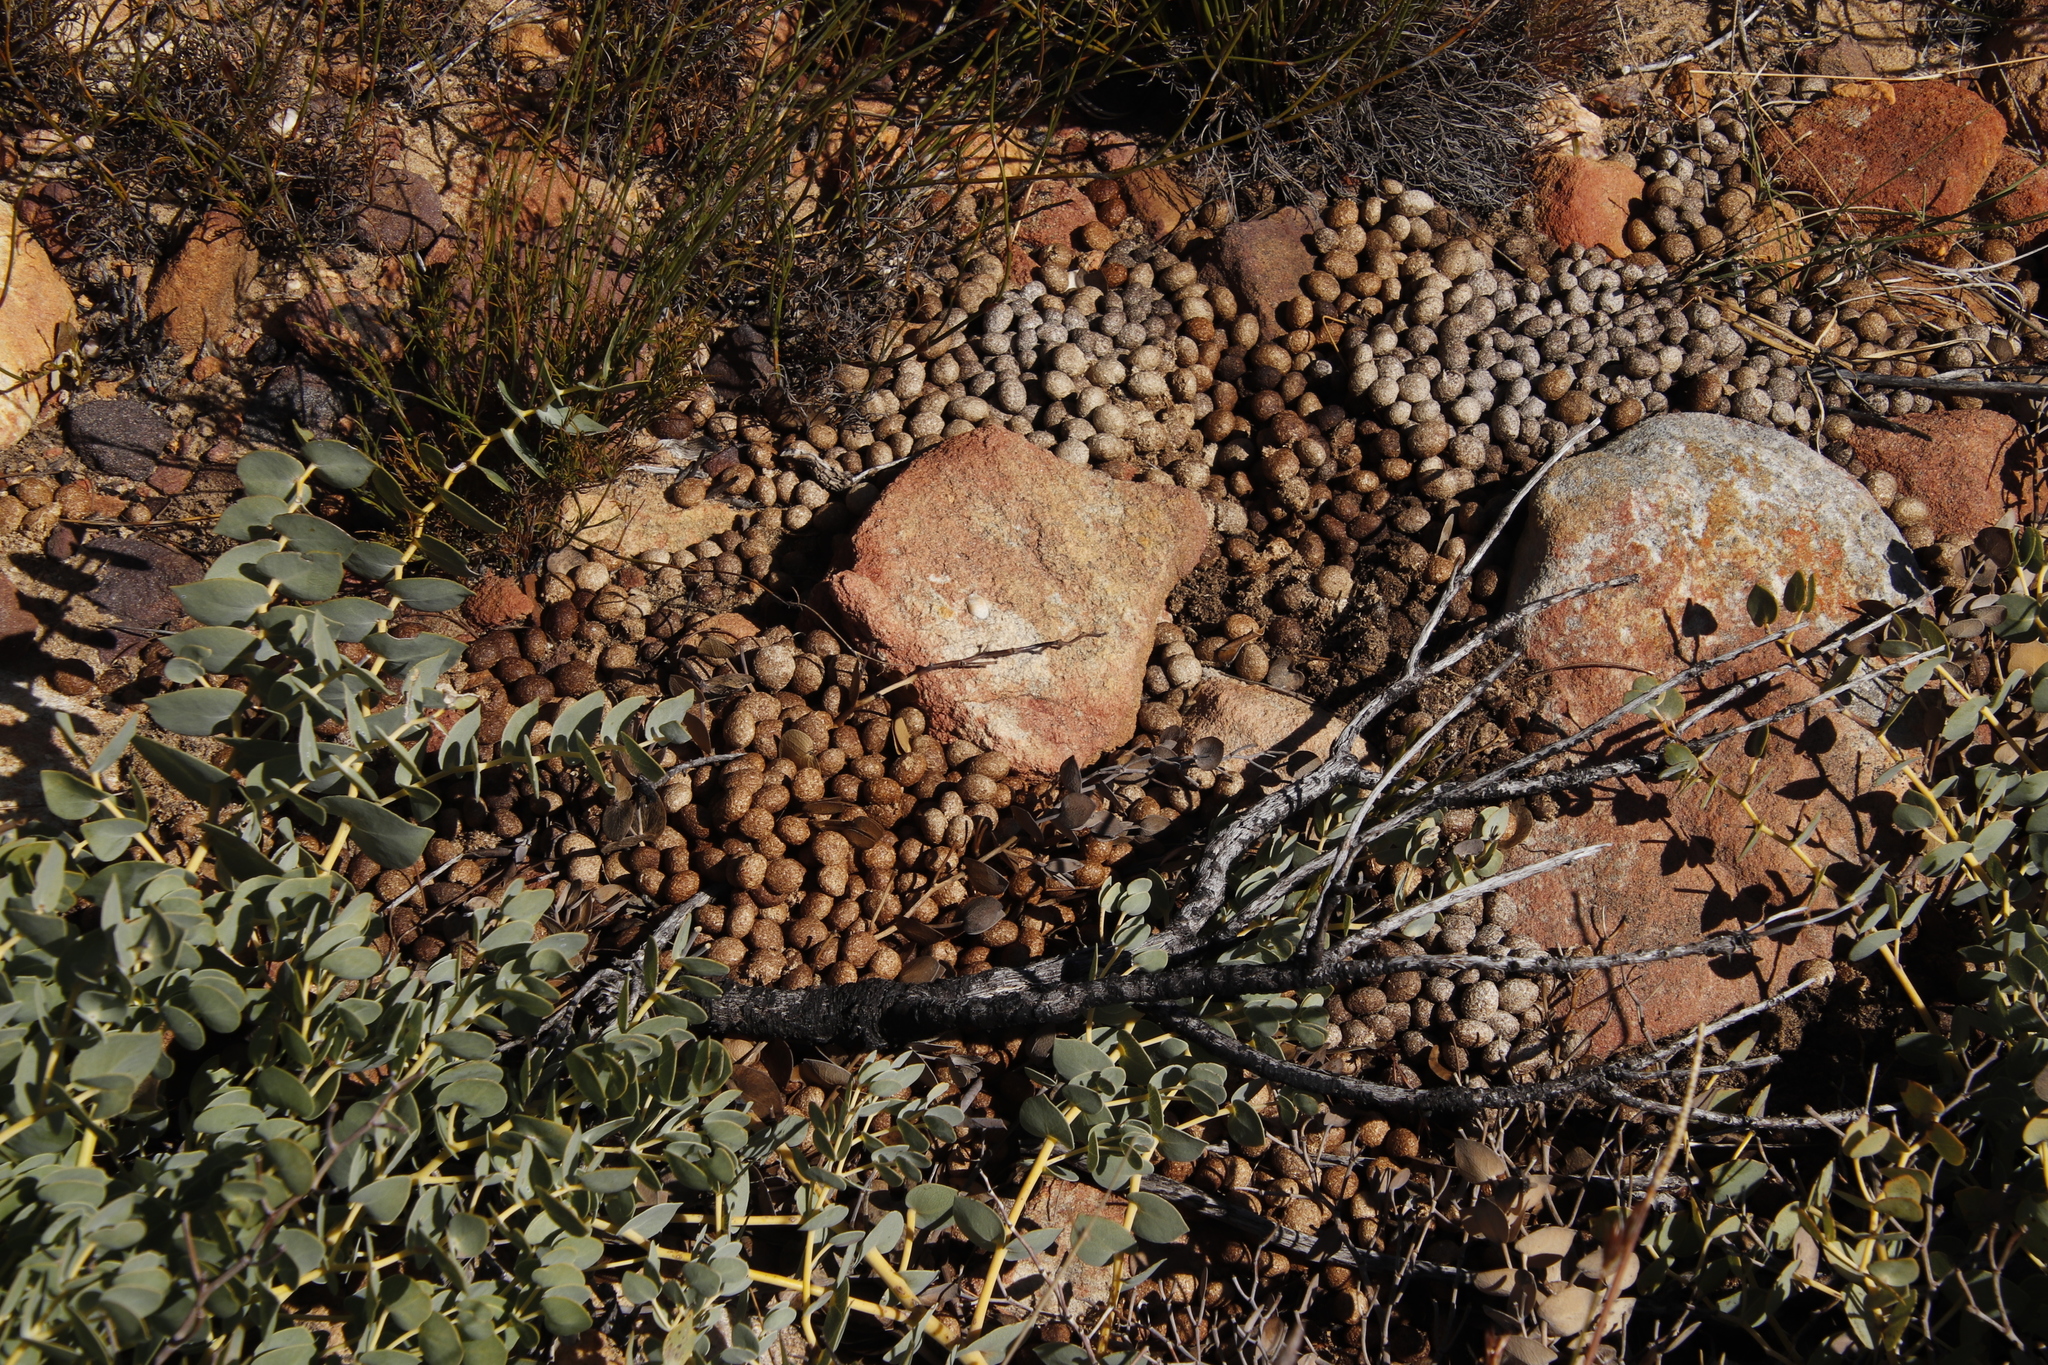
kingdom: Animalia
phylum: Chordata
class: Mammalia
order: Lagomorpha
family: Leporidae
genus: Pronolagus
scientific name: Pronolagus saundersiae
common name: Hewitt's red rock hare
